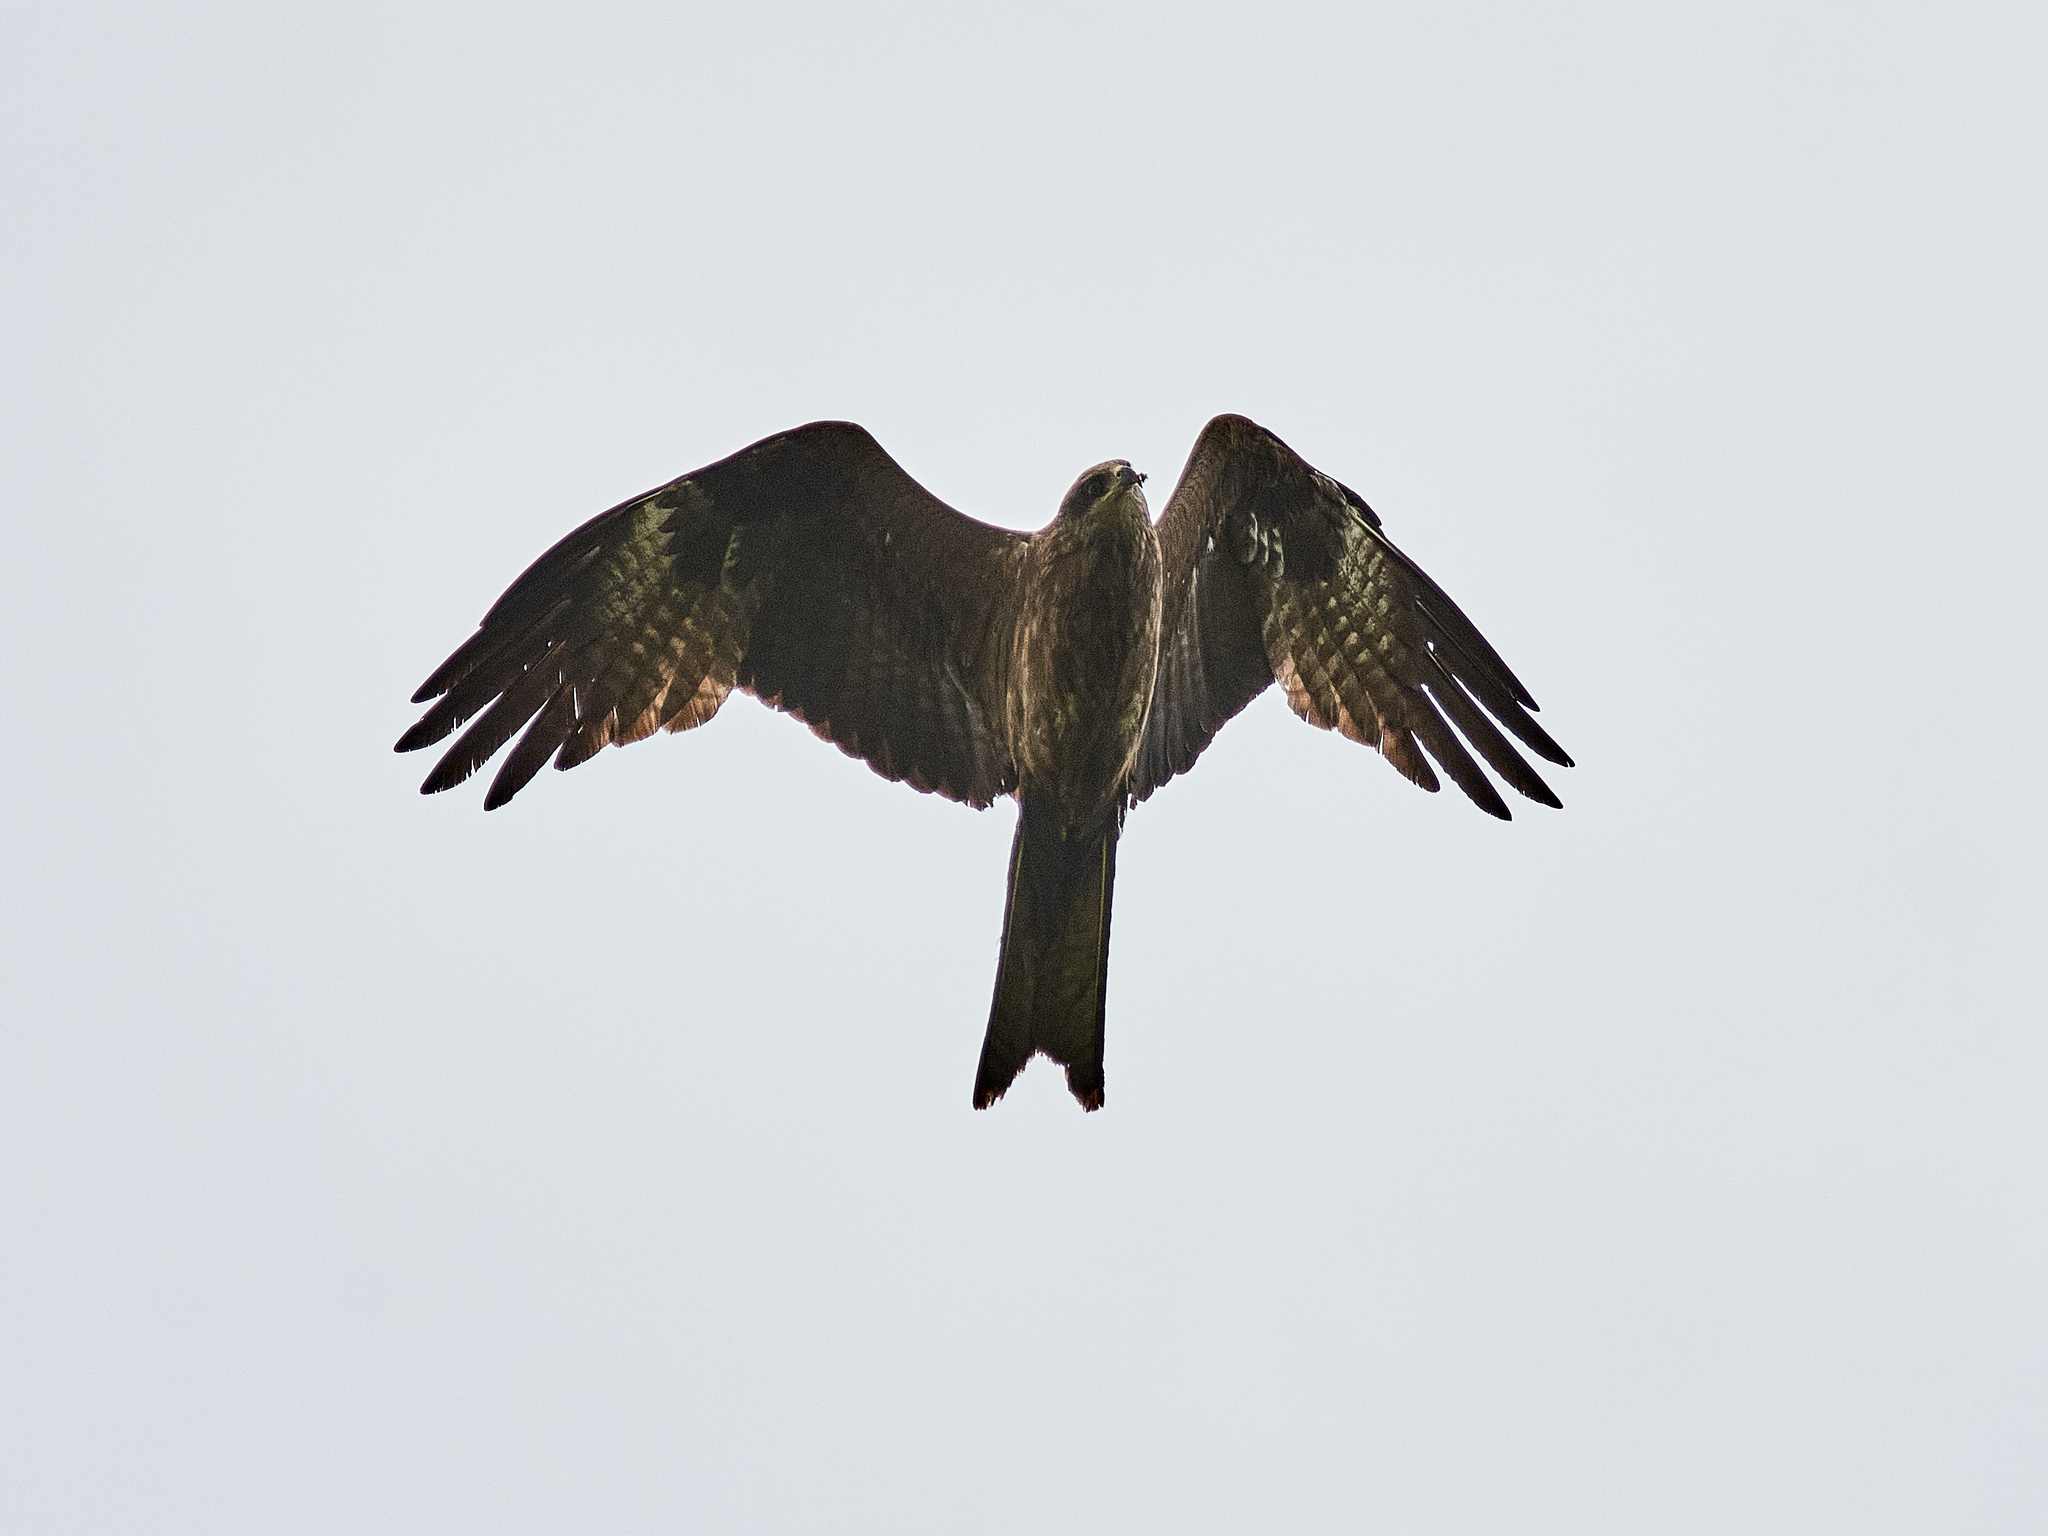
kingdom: Animalia
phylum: Chordata
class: Aves
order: Accipitriformes
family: Accipitridae
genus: Milvus
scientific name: Milvus migrans
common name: Black kite
